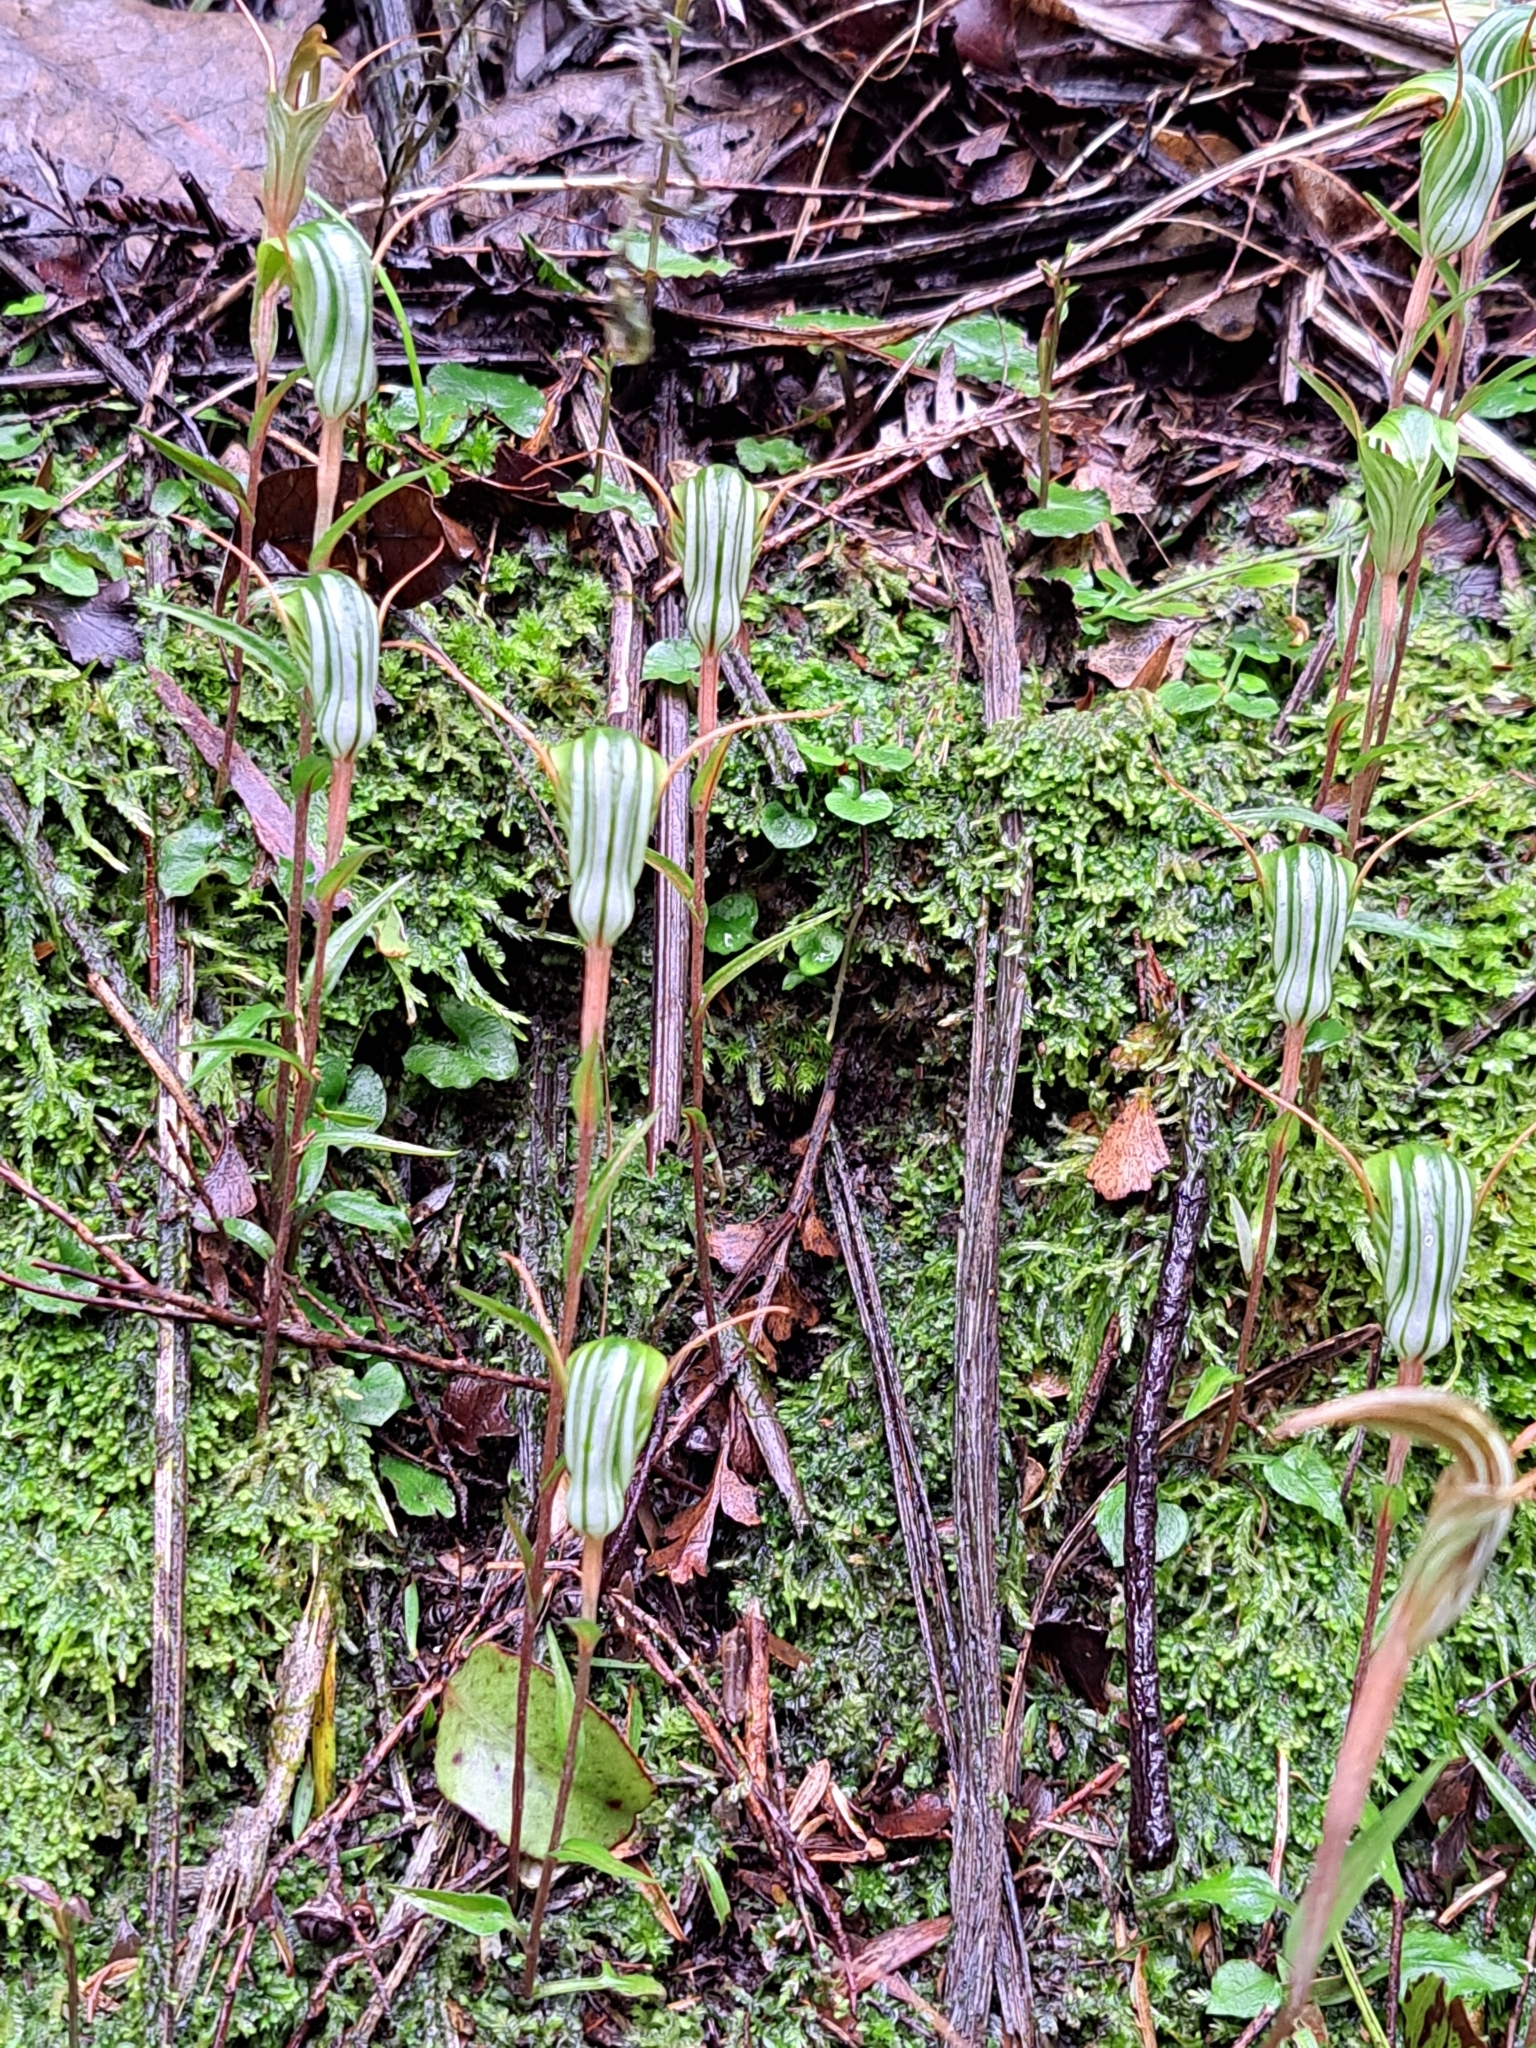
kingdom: Plantae
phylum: Tracheophyta
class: Liliopsida
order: Asparagales
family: Orchidaceae
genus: Pterostylis
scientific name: Pterostylis alobula
